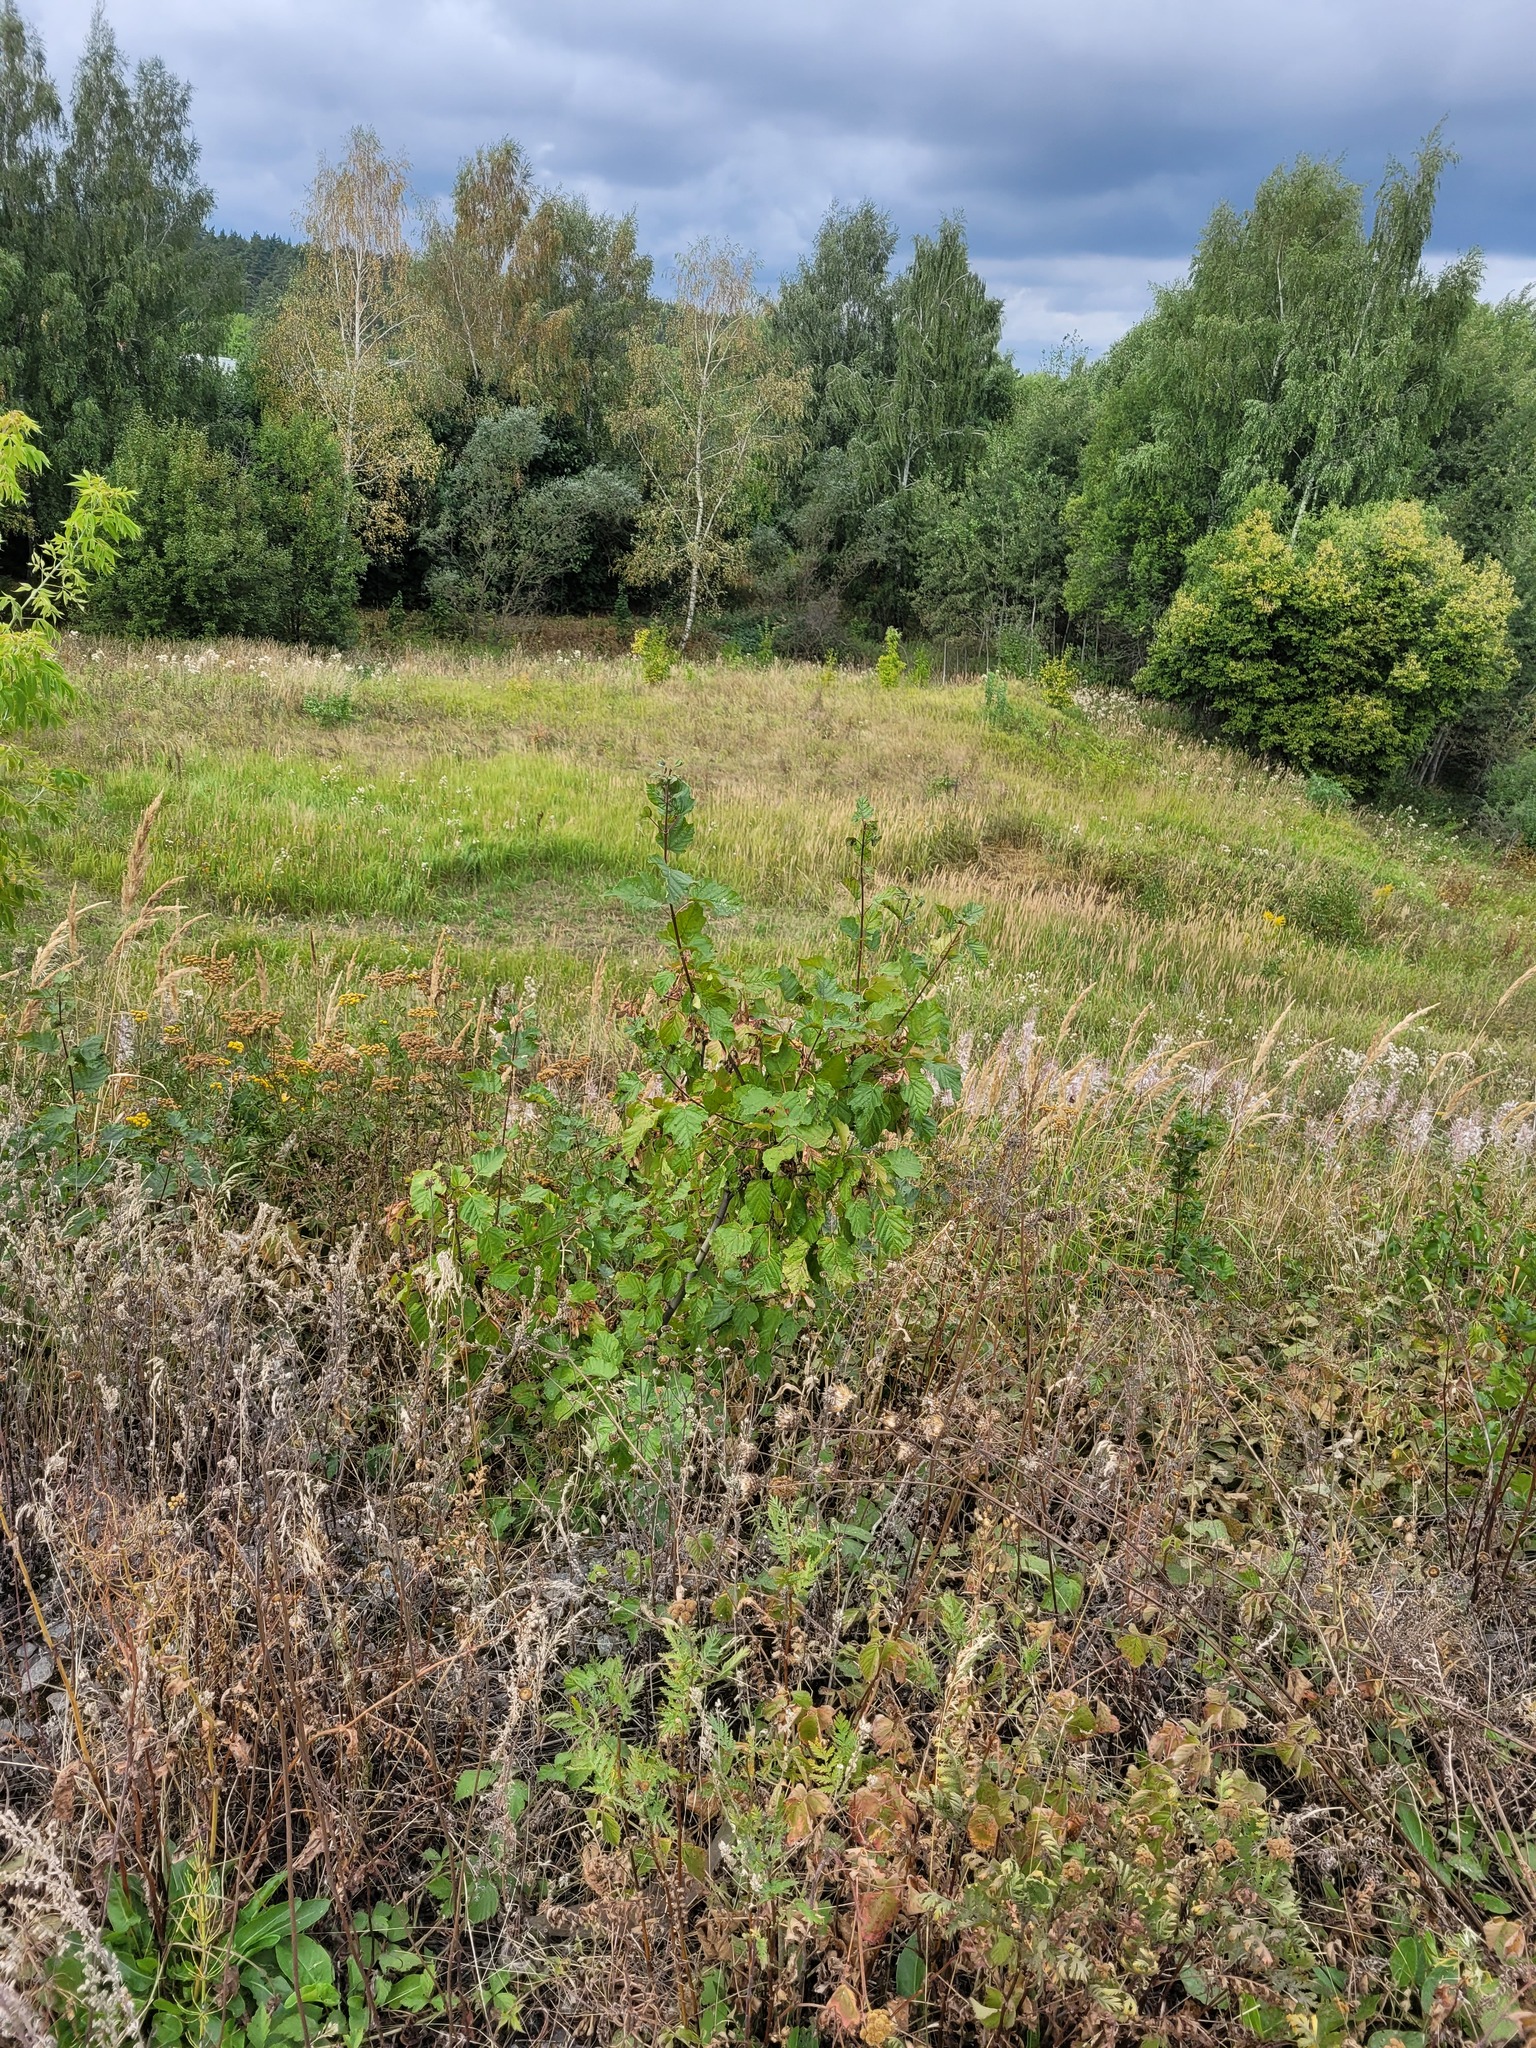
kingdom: Plantae
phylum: Tracheophyta
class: Magnoliopsida
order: Sapindales
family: Sapindaceae
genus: Acer
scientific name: Acer tataricum
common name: Tartar maple
